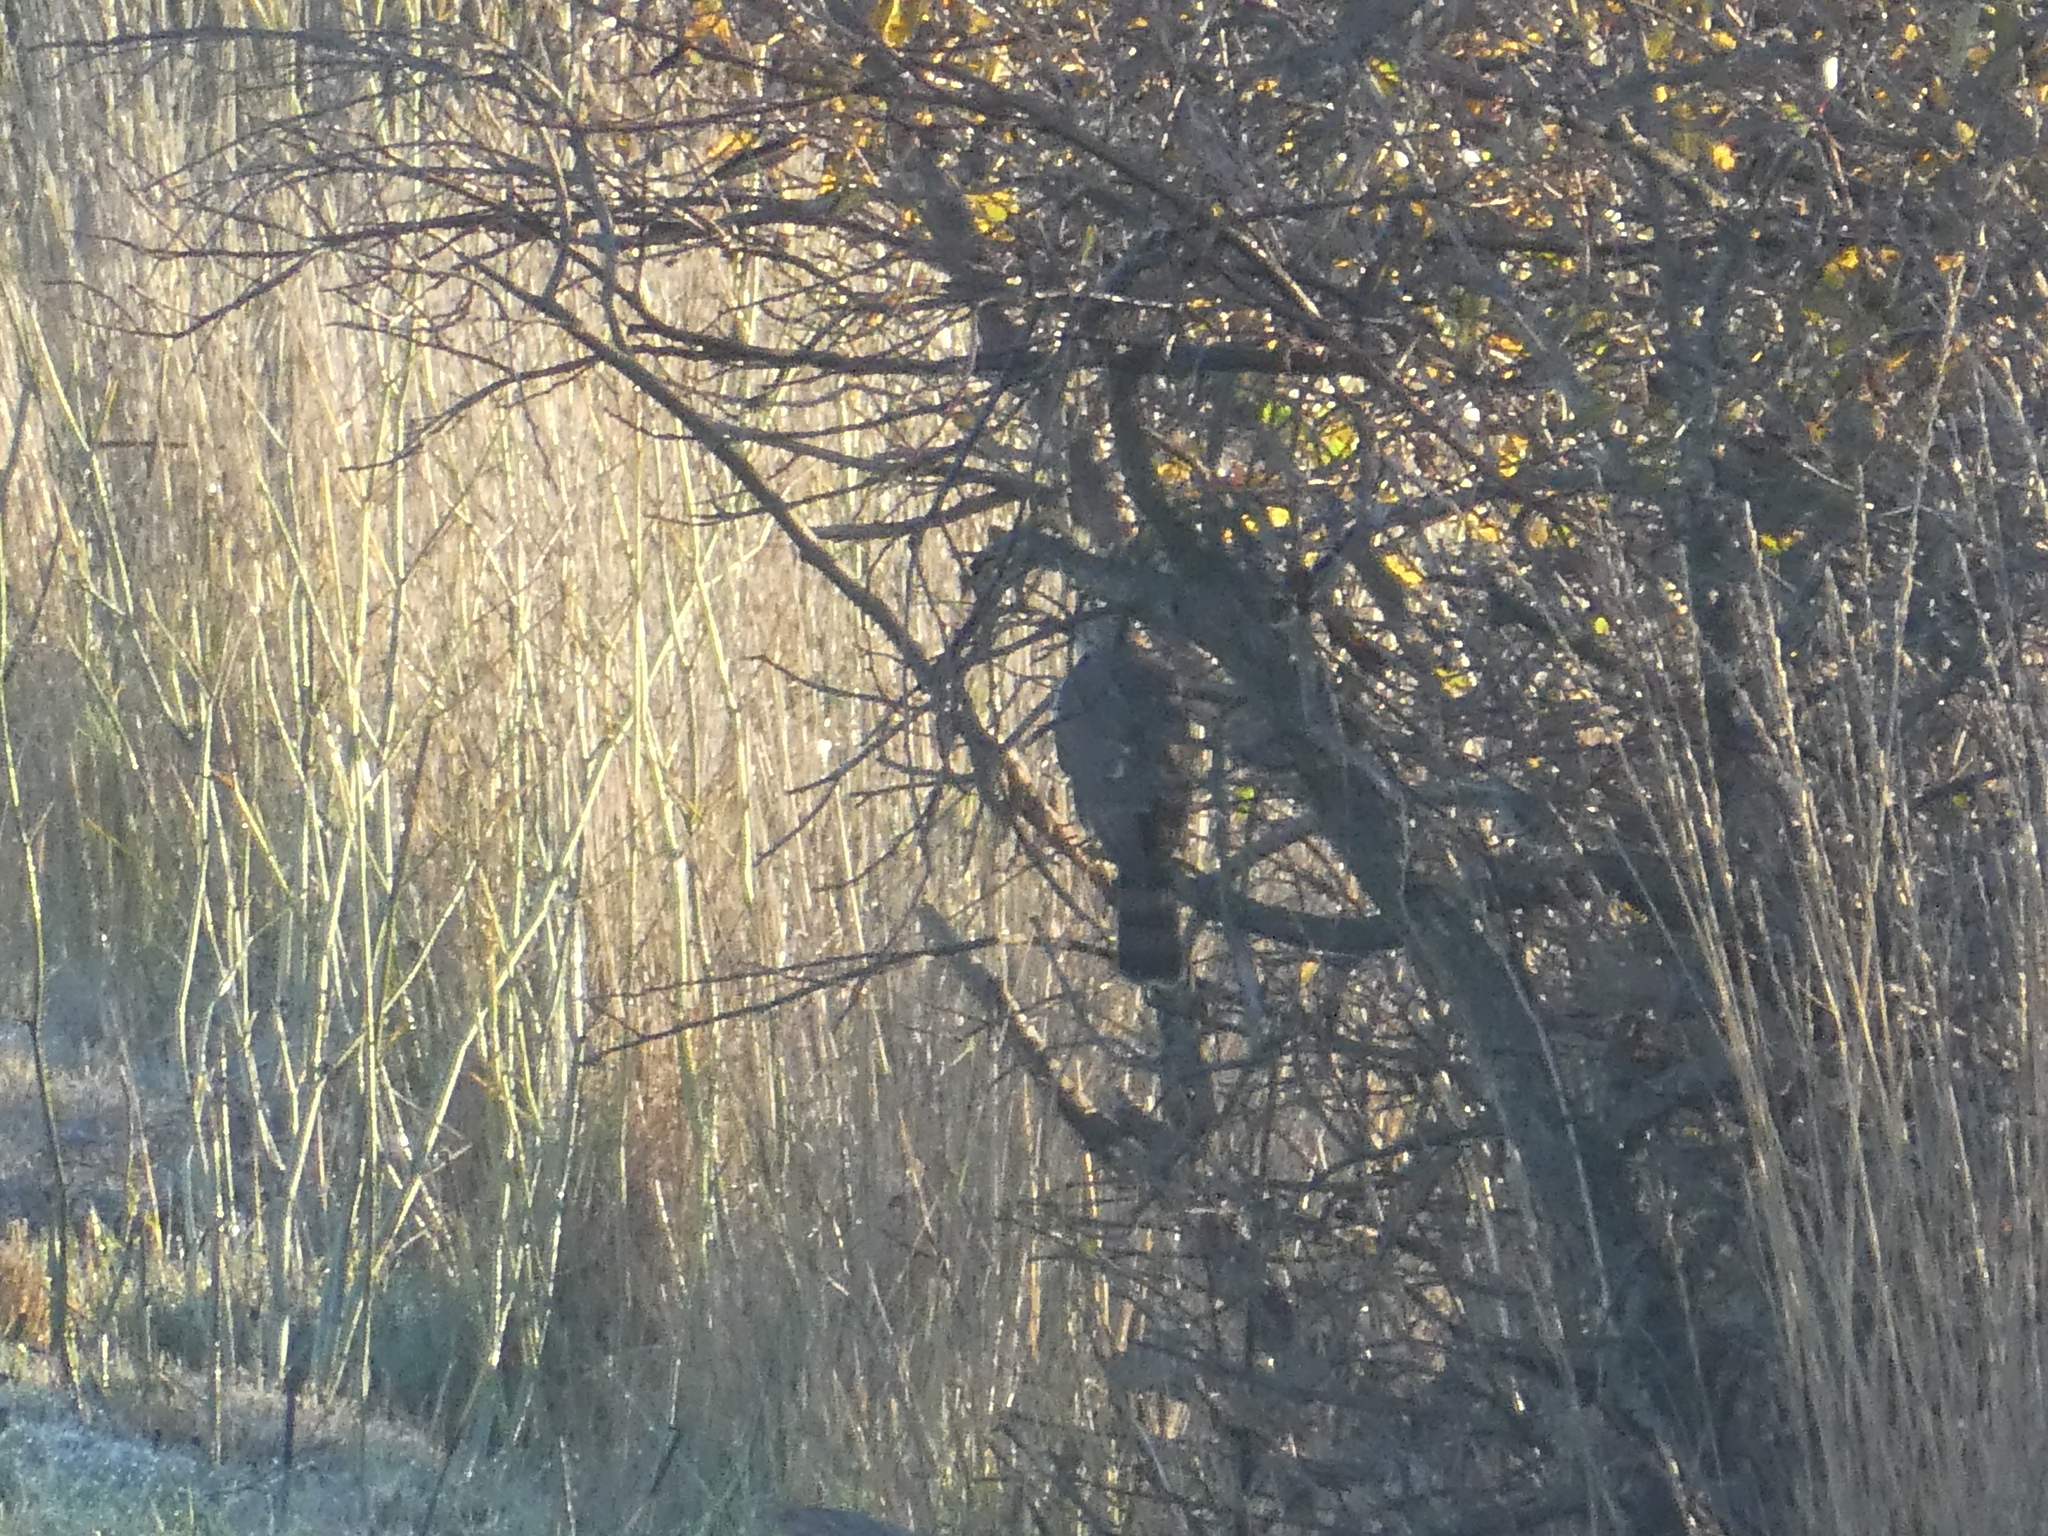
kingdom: Animalia
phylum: Chordata
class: Aves
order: Accipitriformes
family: Accipitridae
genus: Accipiter
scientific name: Accipiter cooperii
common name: Cooper's hawk
